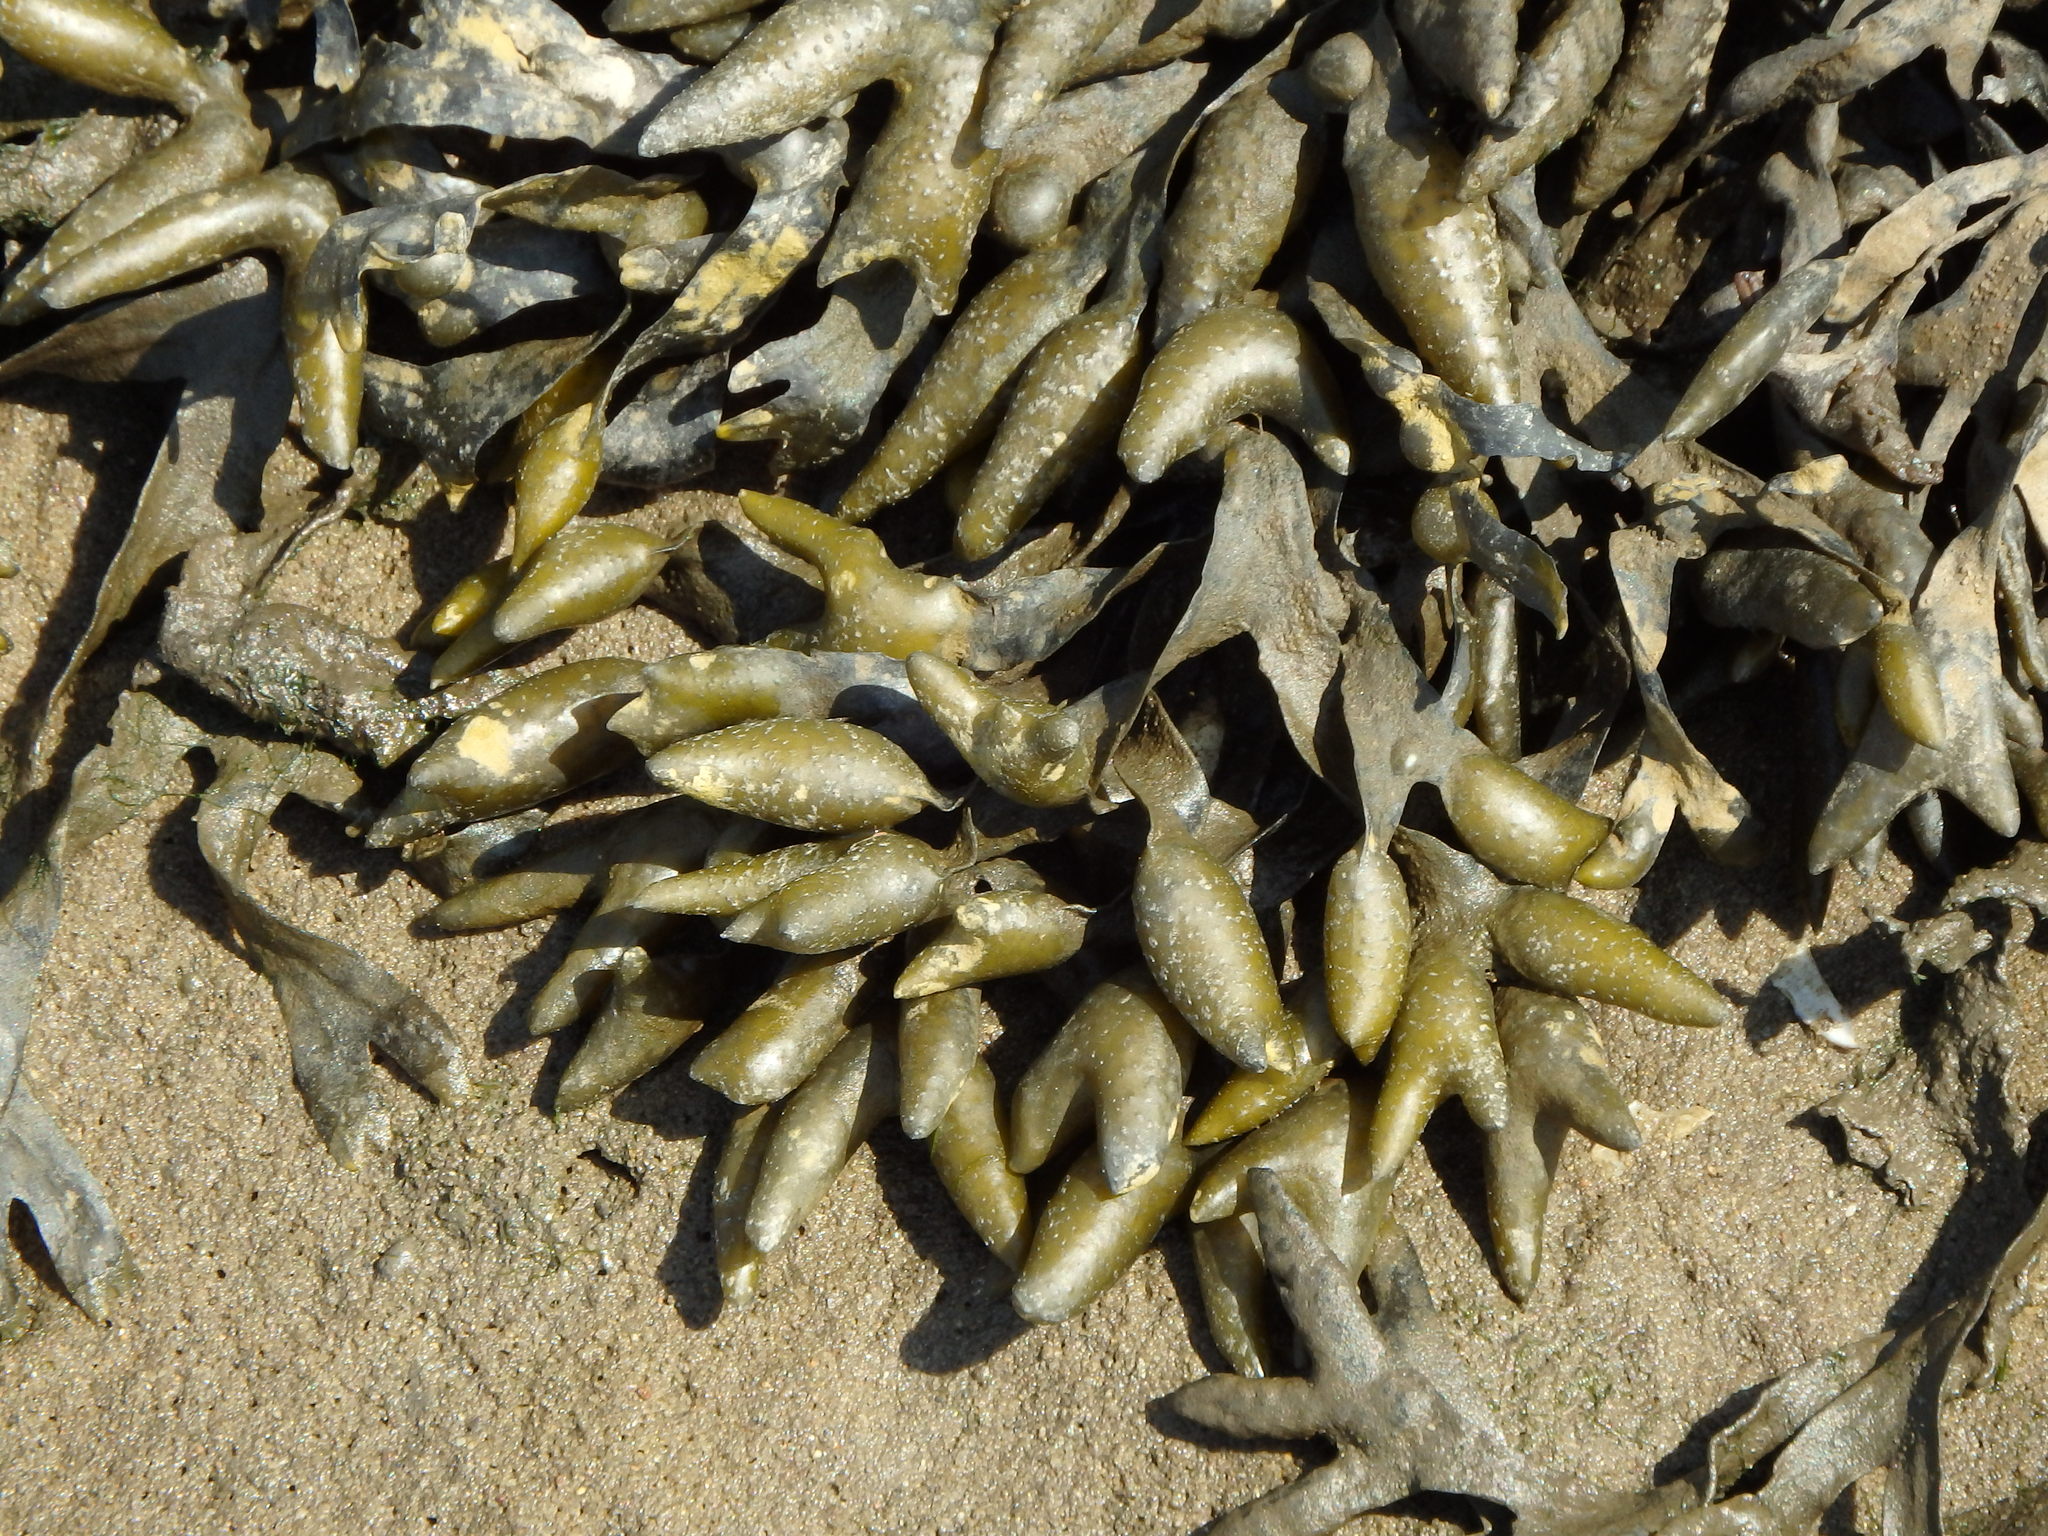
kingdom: Chromista
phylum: Ochrophyta
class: Phaeophyceae
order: Fucales
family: Fucaceae
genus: Fucus
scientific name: Fucus vesiculosus
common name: Bladder wrack
